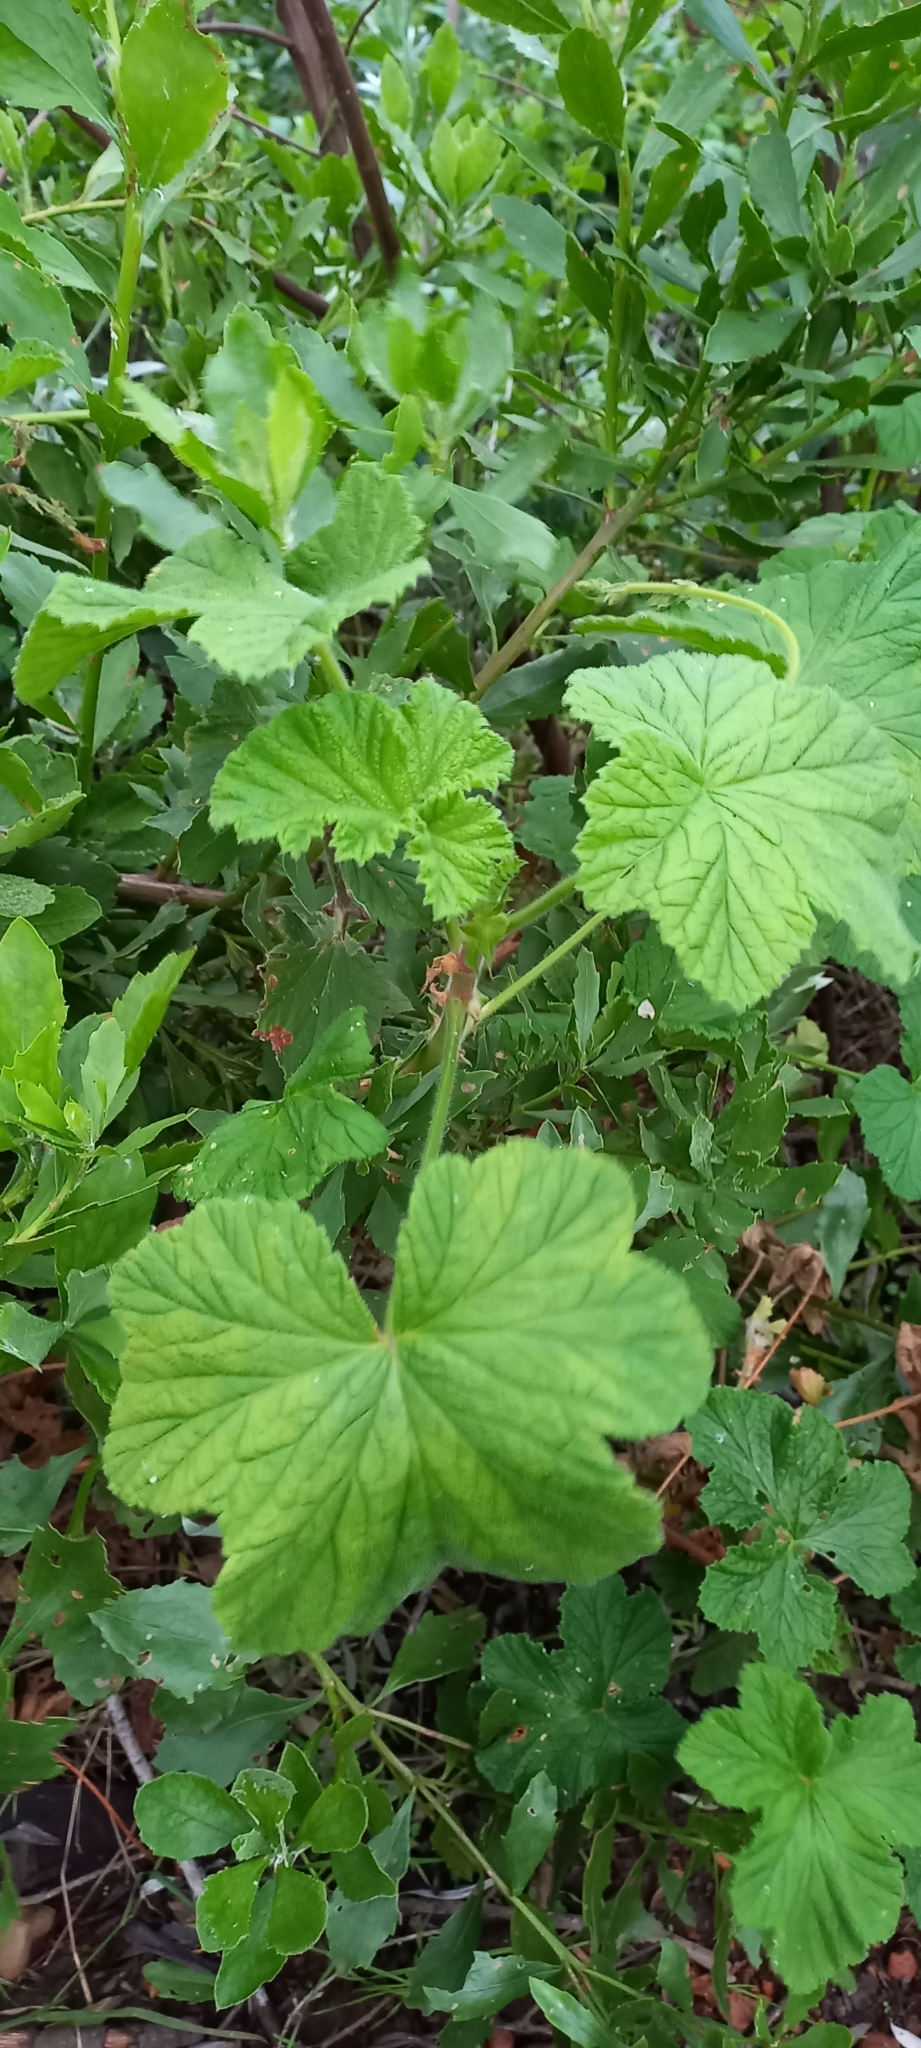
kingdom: Plantae
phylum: Tracheophyta
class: Magnoliopsida
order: Geraniales
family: Geraniaceae
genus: Pelargonium
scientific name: Pelargonium vitifolium
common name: Grapeleaf geranium
